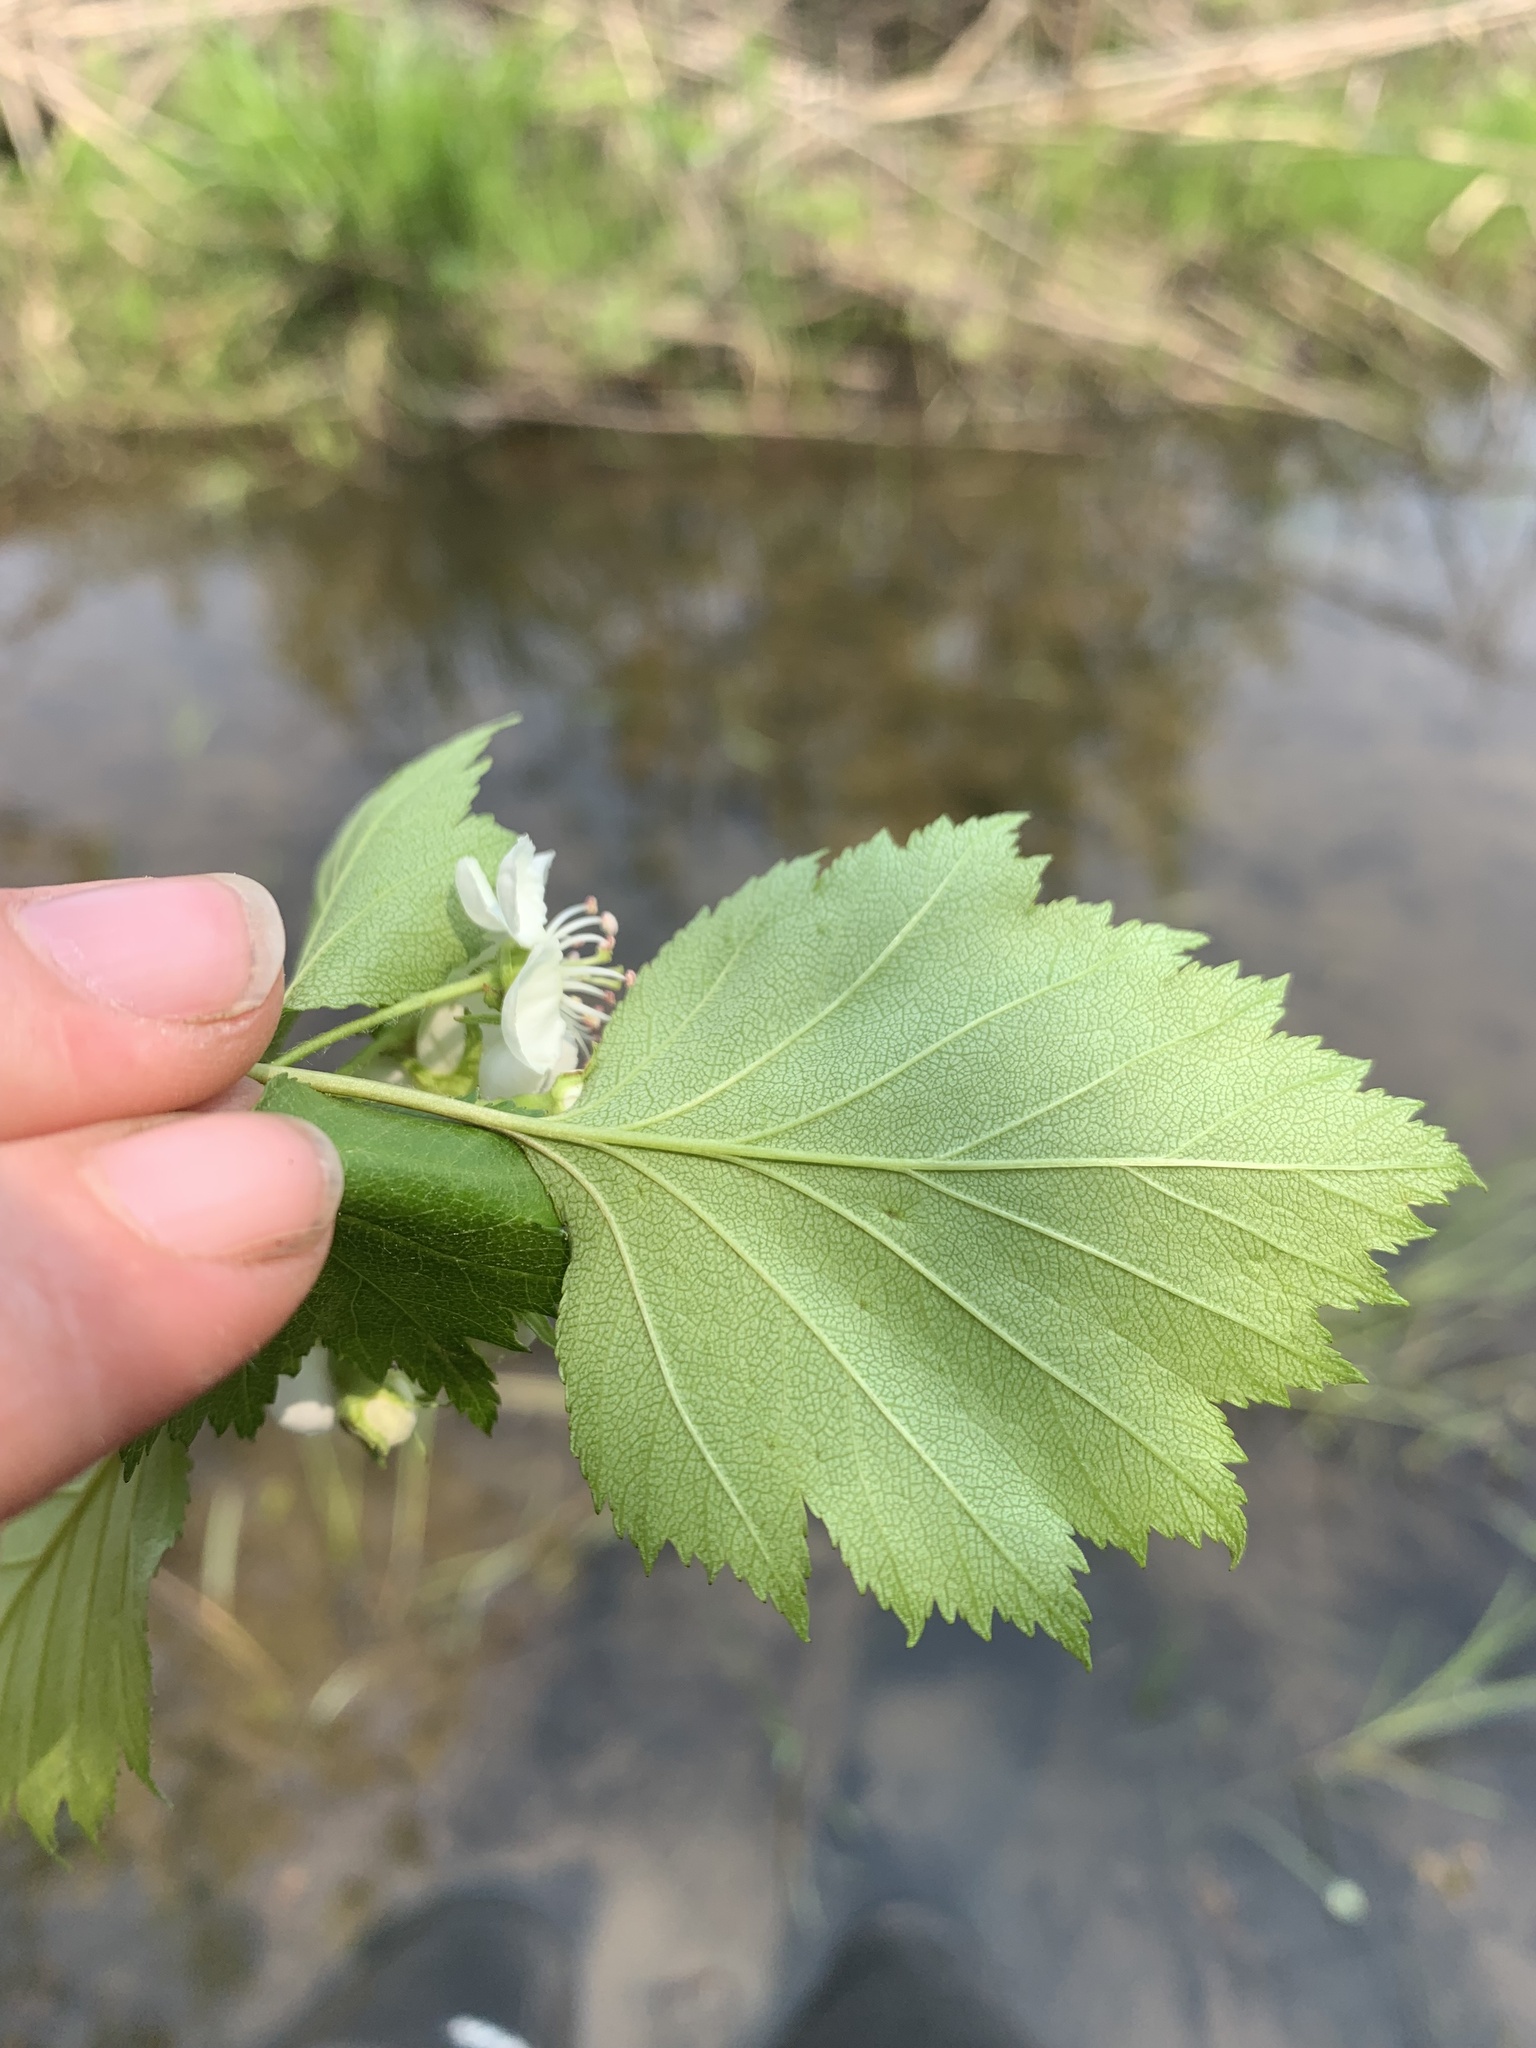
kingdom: Plantae
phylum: Tracheophyta
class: Magnoliopsida
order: Rosales
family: Rosaceae
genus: Crataegus
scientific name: Crataegus flabellata
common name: Bosc's hawthorn
